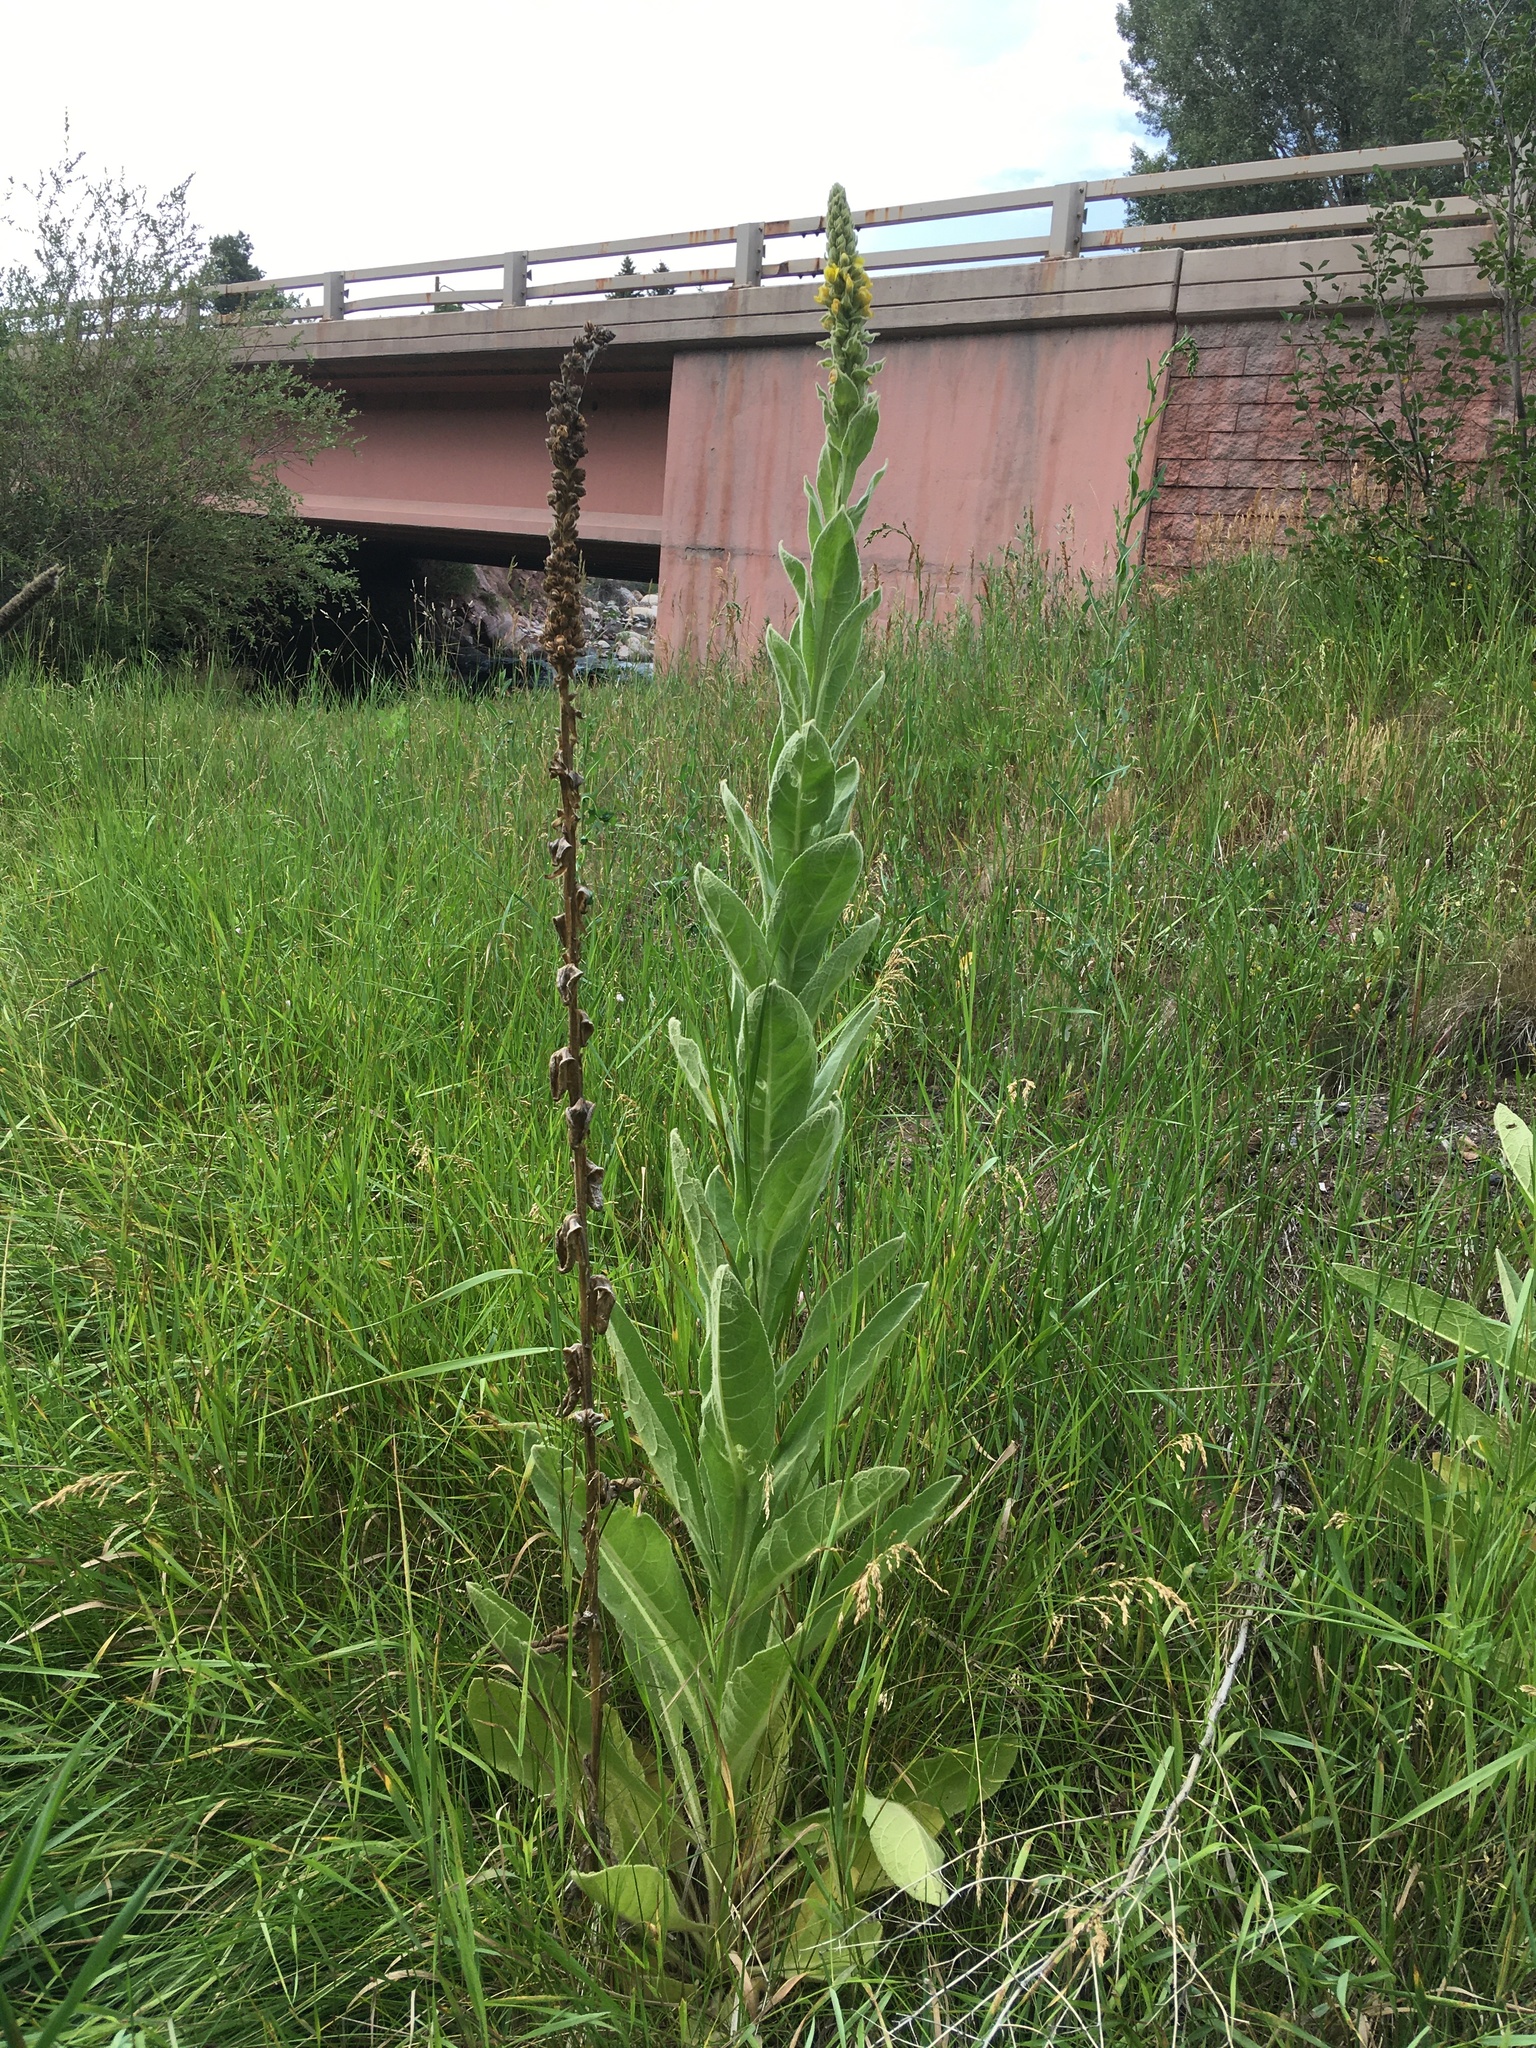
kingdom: Plantae
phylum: Tracheophyta
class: Magnoliopsida
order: Lamiales
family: Scrophulariaceae
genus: Verbascum
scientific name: Verbascum thapsus
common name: Common mullein
